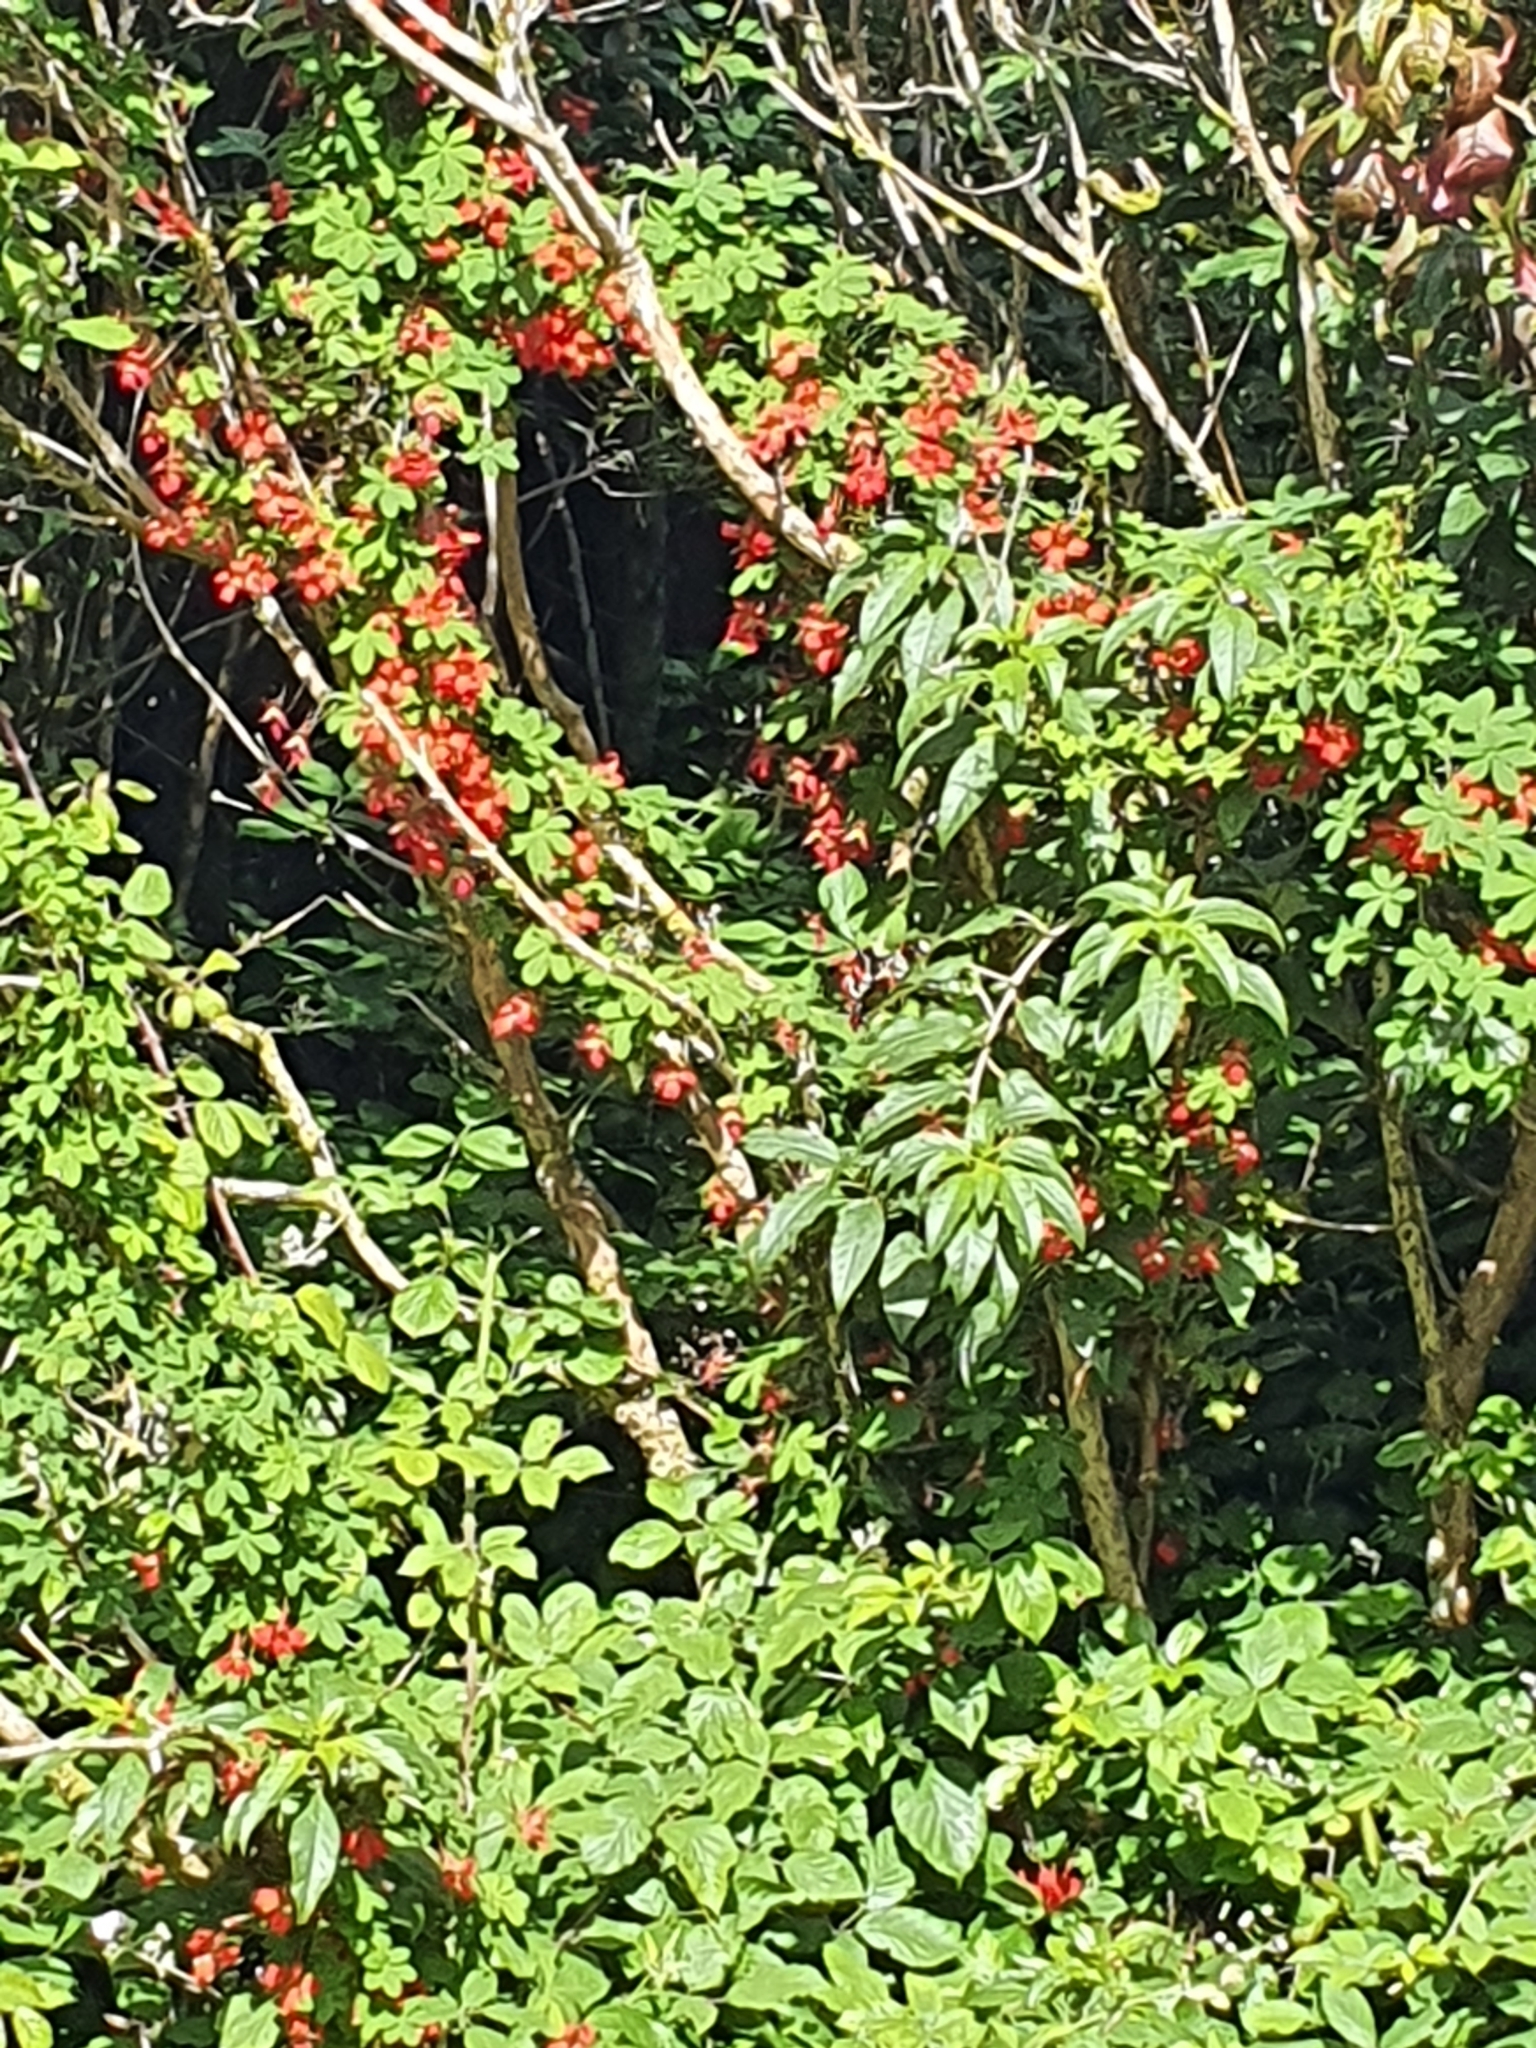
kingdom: Plantae
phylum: Tracheophyta
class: Magnoliopsida
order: Brassicales
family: Tropaeolaceae
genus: Tropaeolum
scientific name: Tropaeolum speciosum
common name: Flame nasturtium
